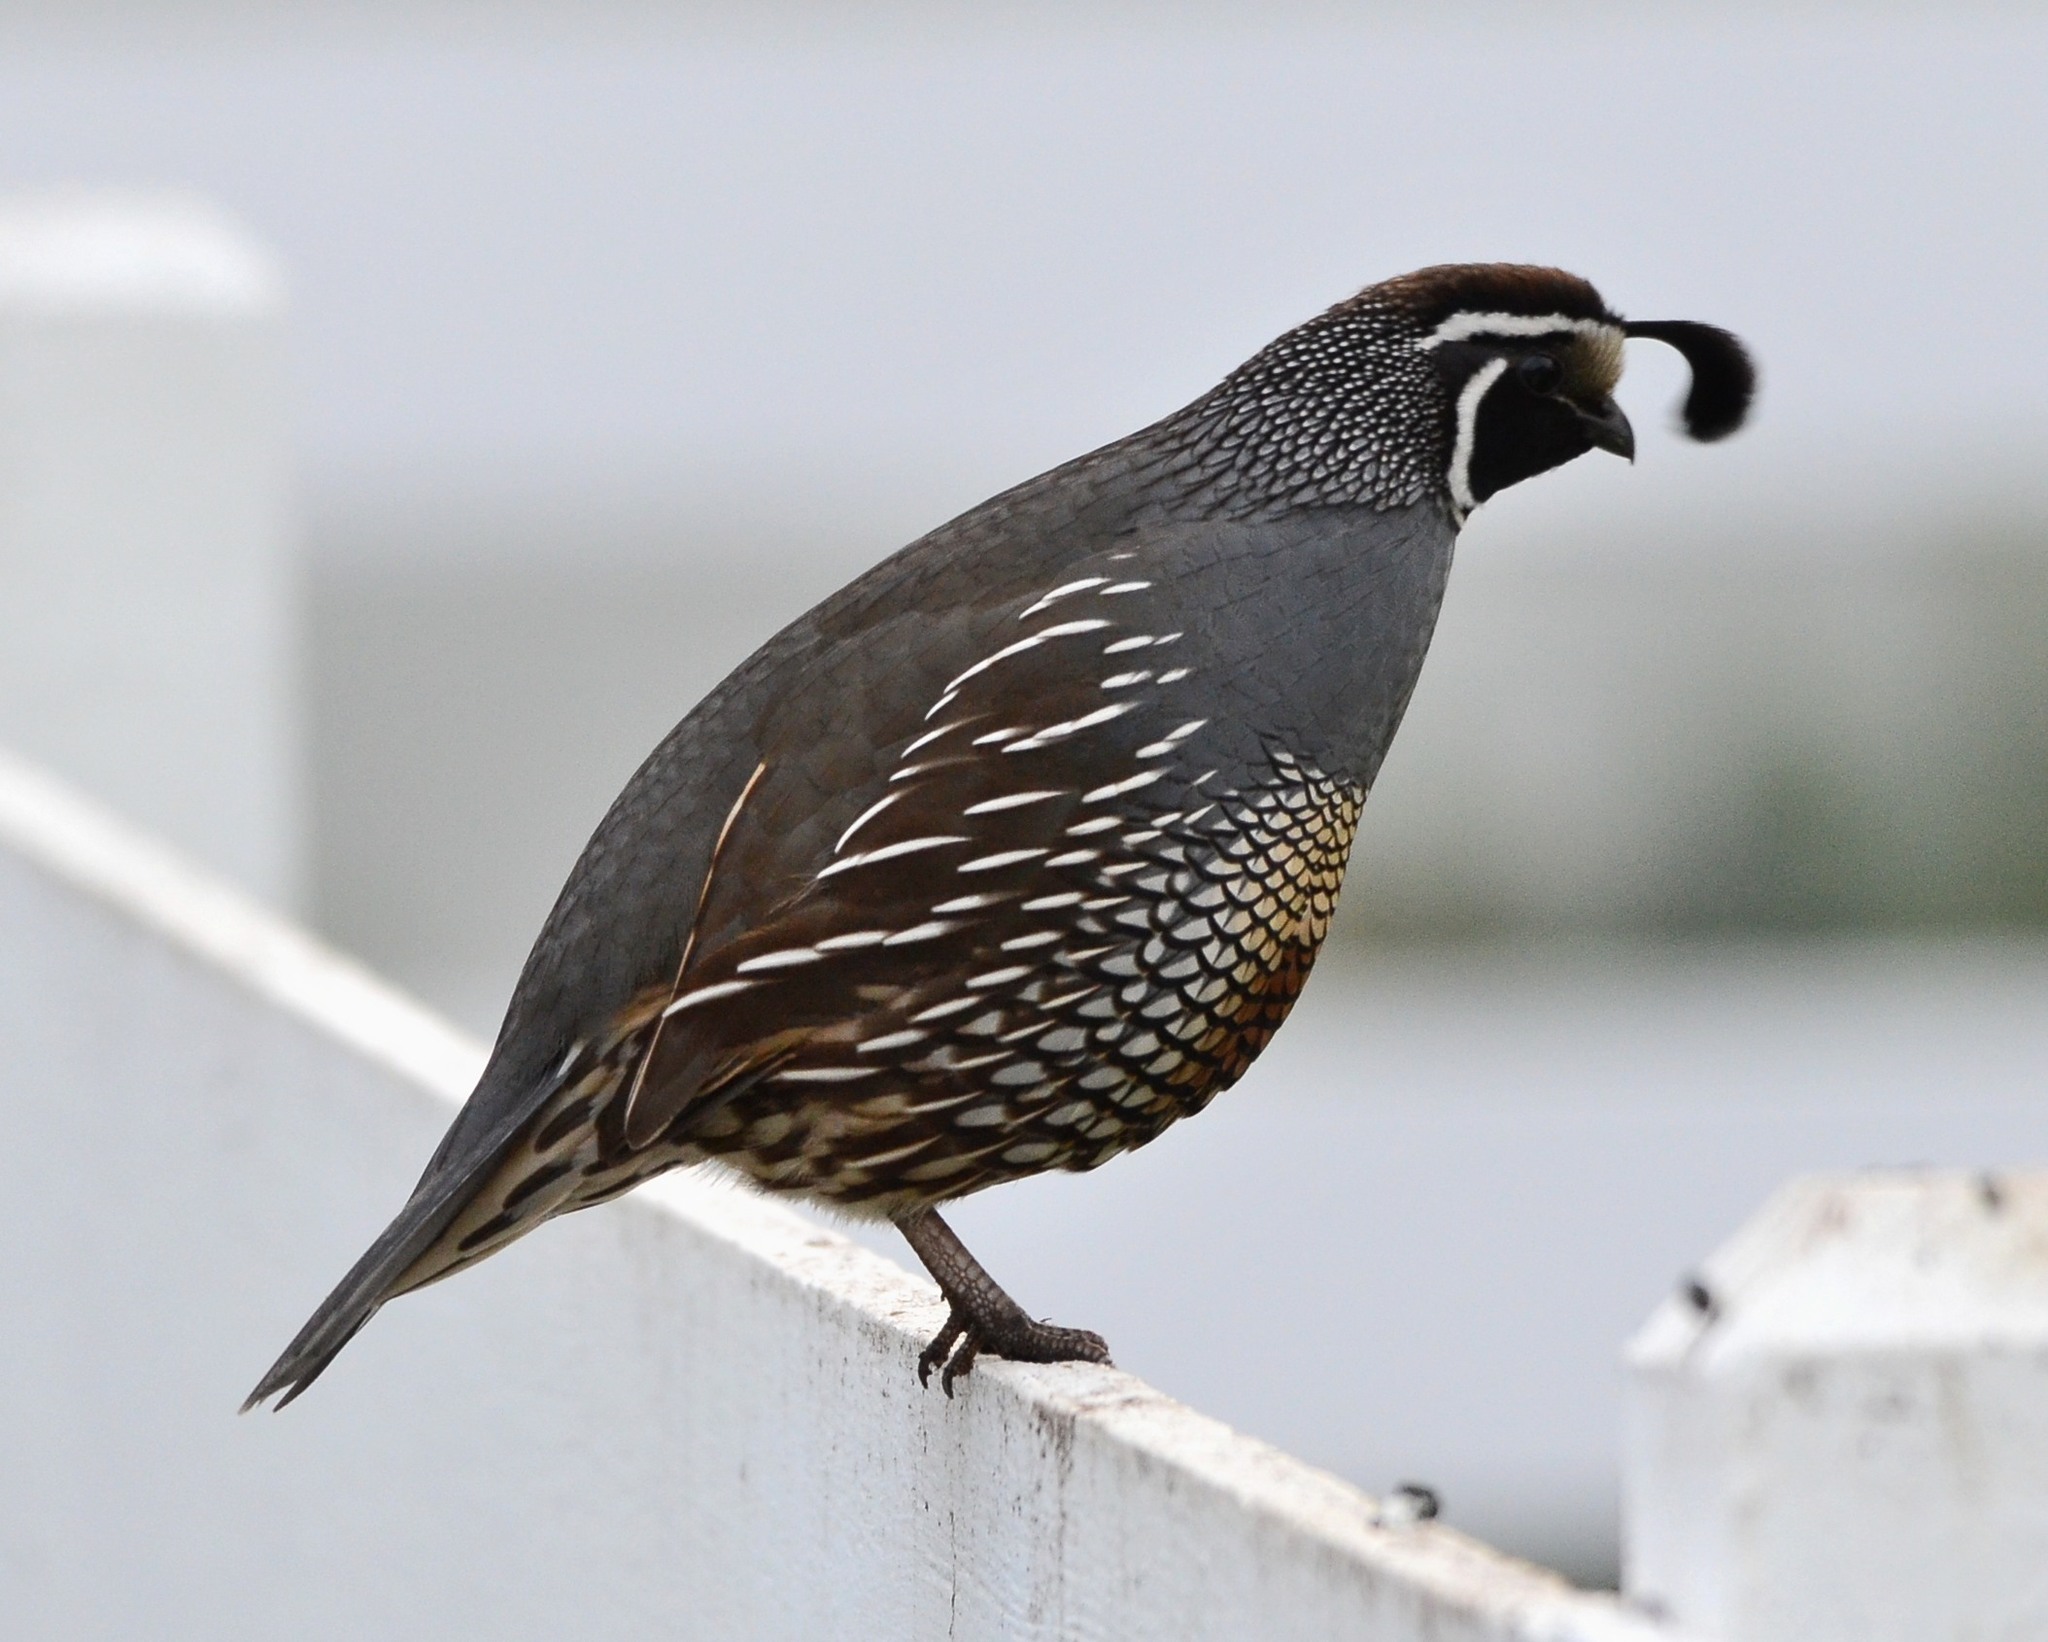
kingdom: Animalia
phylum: Chordata
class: Aves
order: Galliformes
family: Odontophoridae
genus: Callipepla
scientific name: Callipepla californica
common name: California quail
